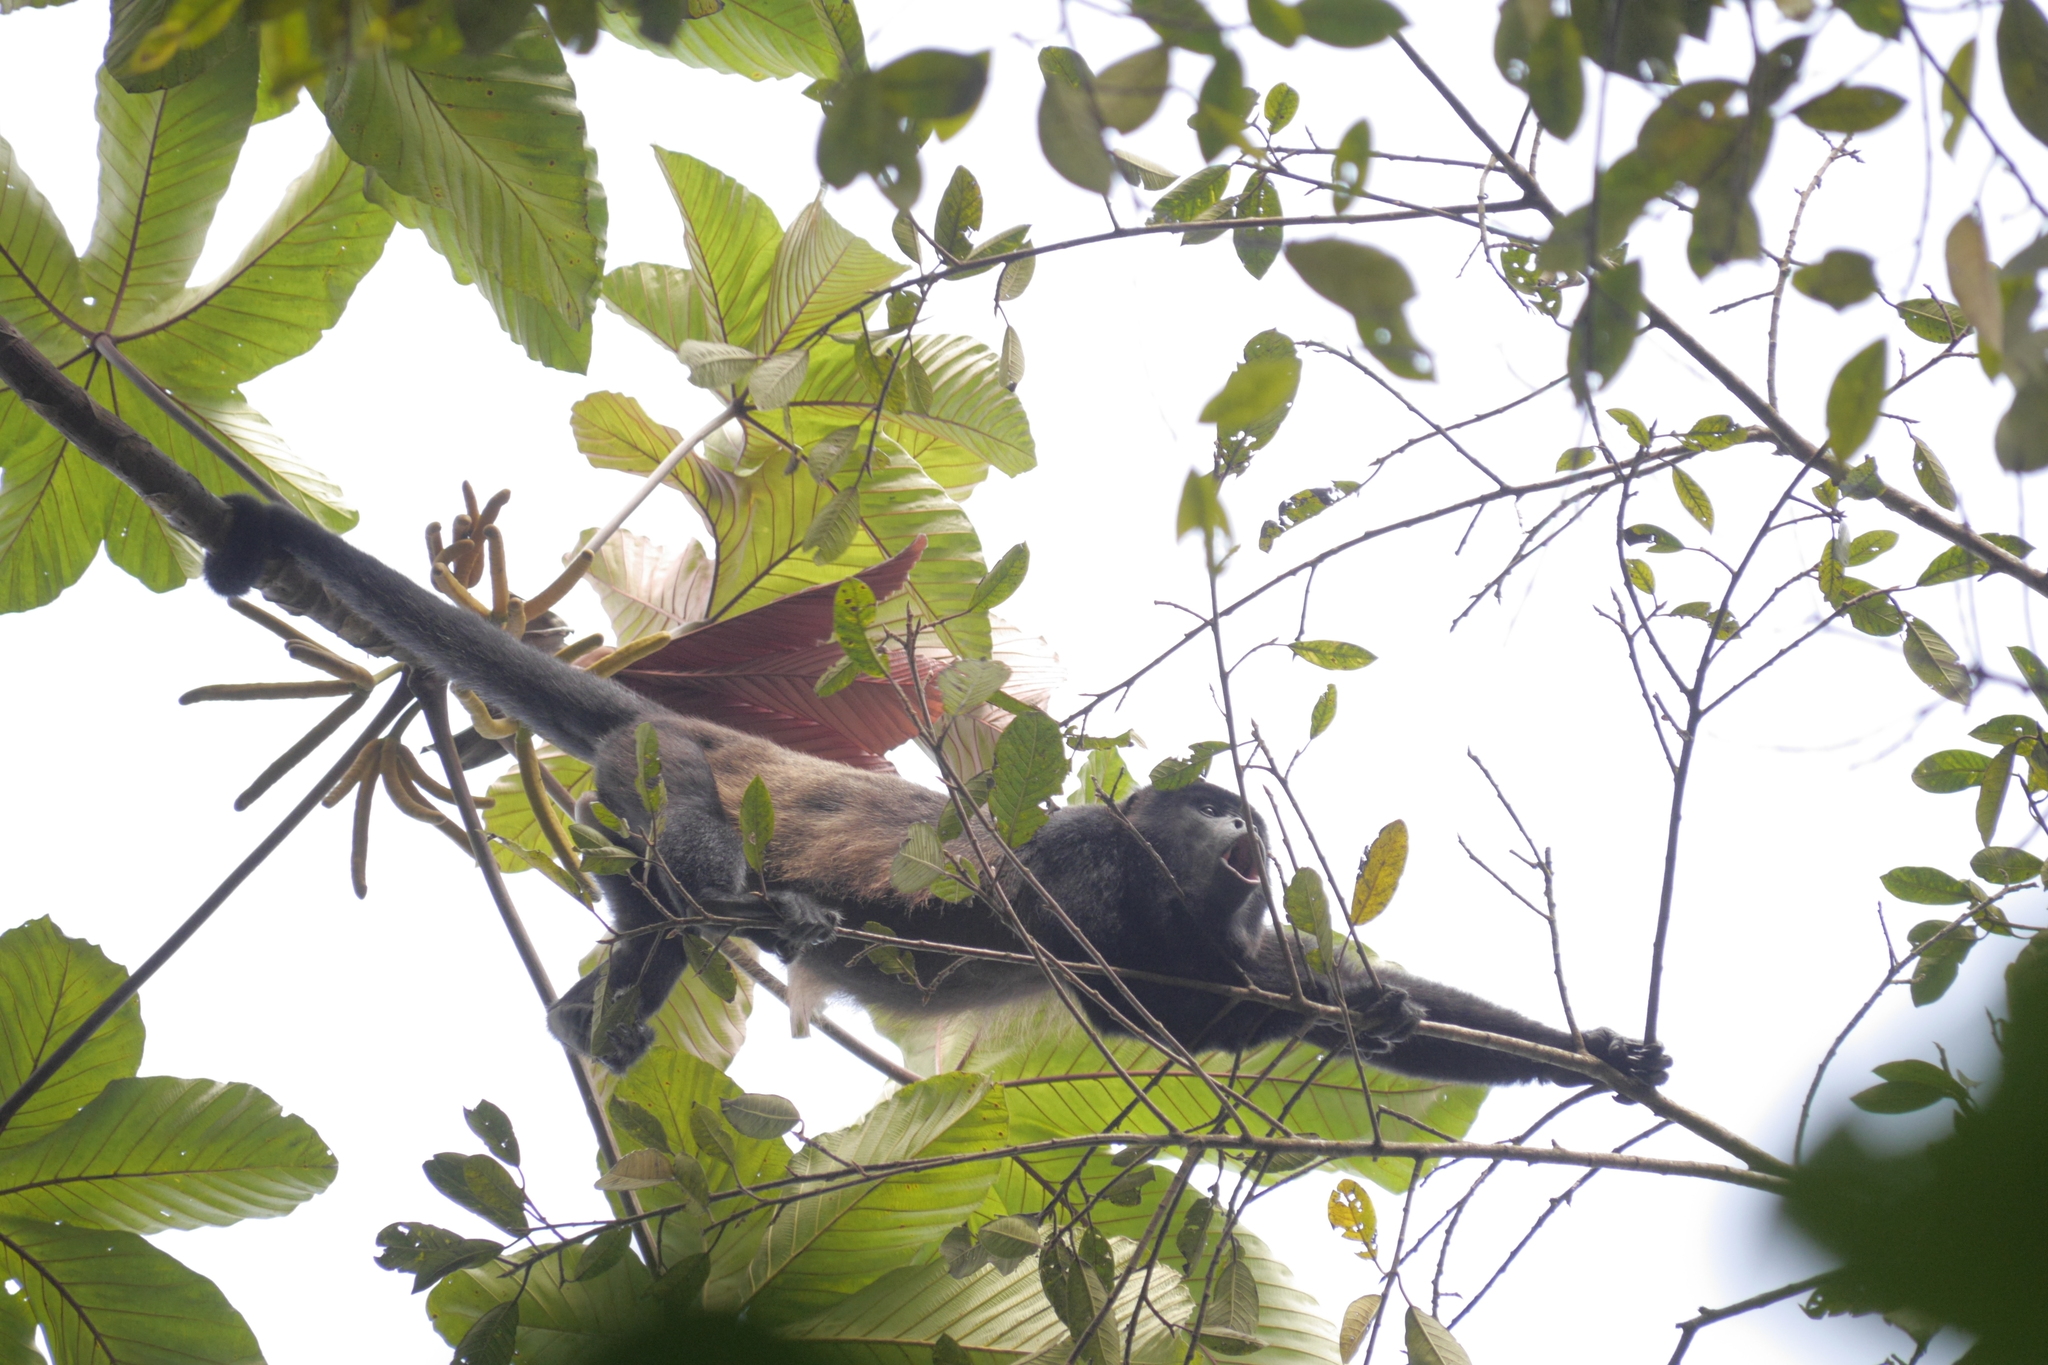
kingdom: Animalia
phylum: Chordata
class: Mammalia
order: Primates
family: Atelidae
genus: Alouatta
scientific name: Alouatta palliata
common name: Mantled howler
